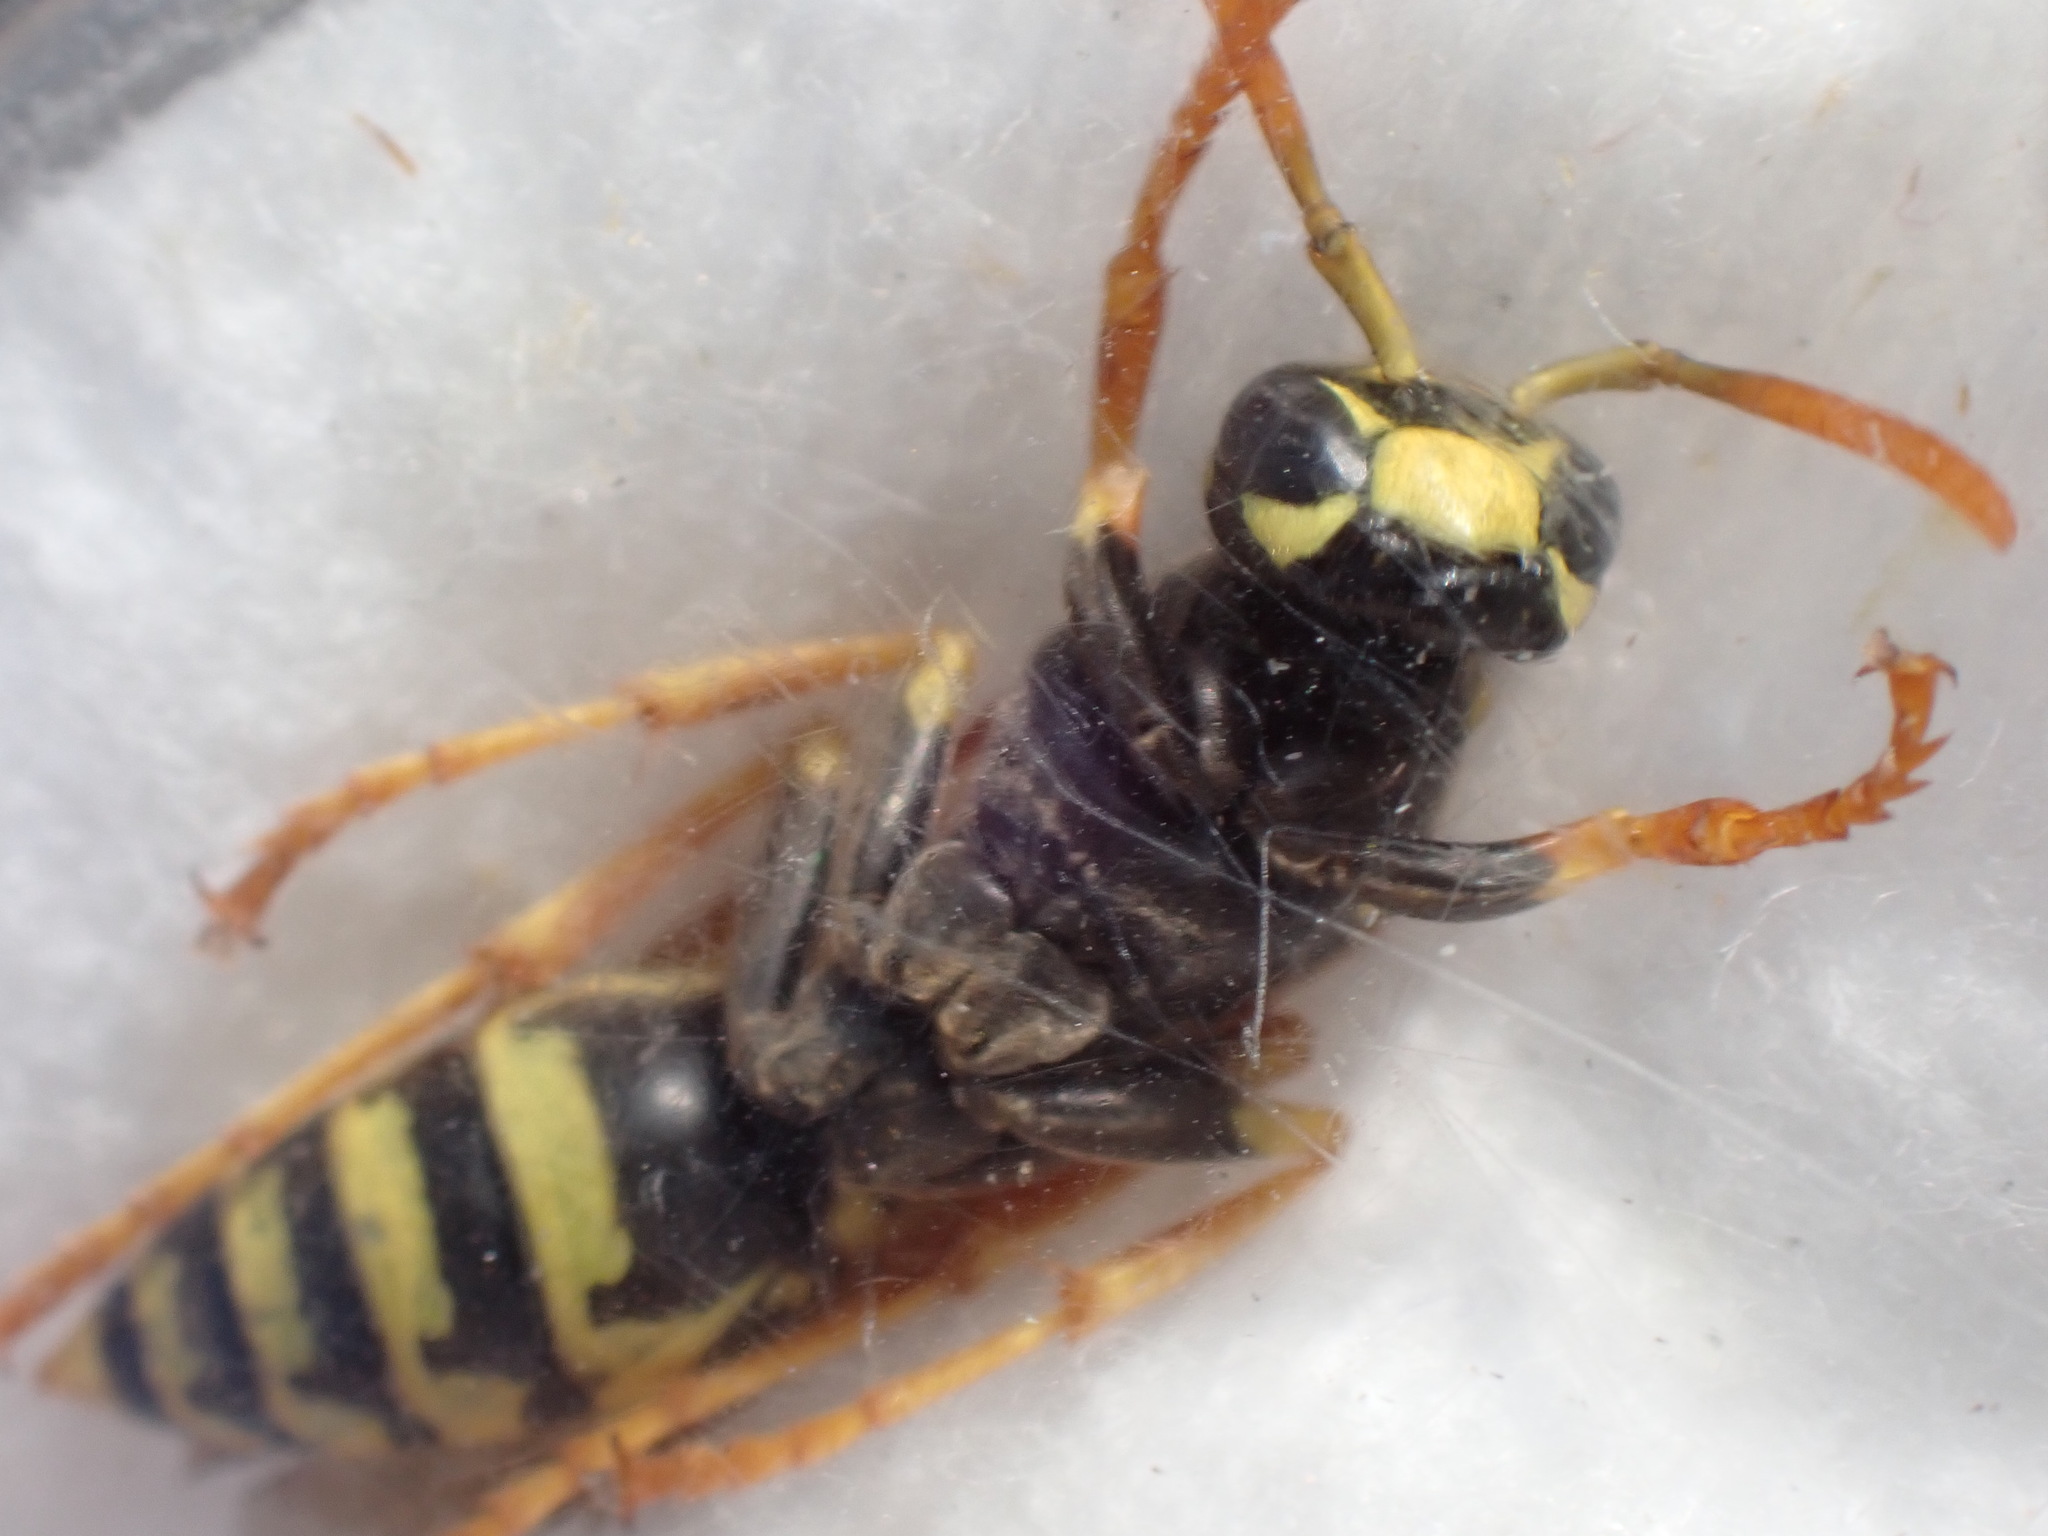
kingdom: Animalia
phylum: Arthropoda
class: Insecta
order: Hymenoptera
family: Eumenidae
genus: Polistes
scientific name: Polistes dominula
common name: Paper wasp
